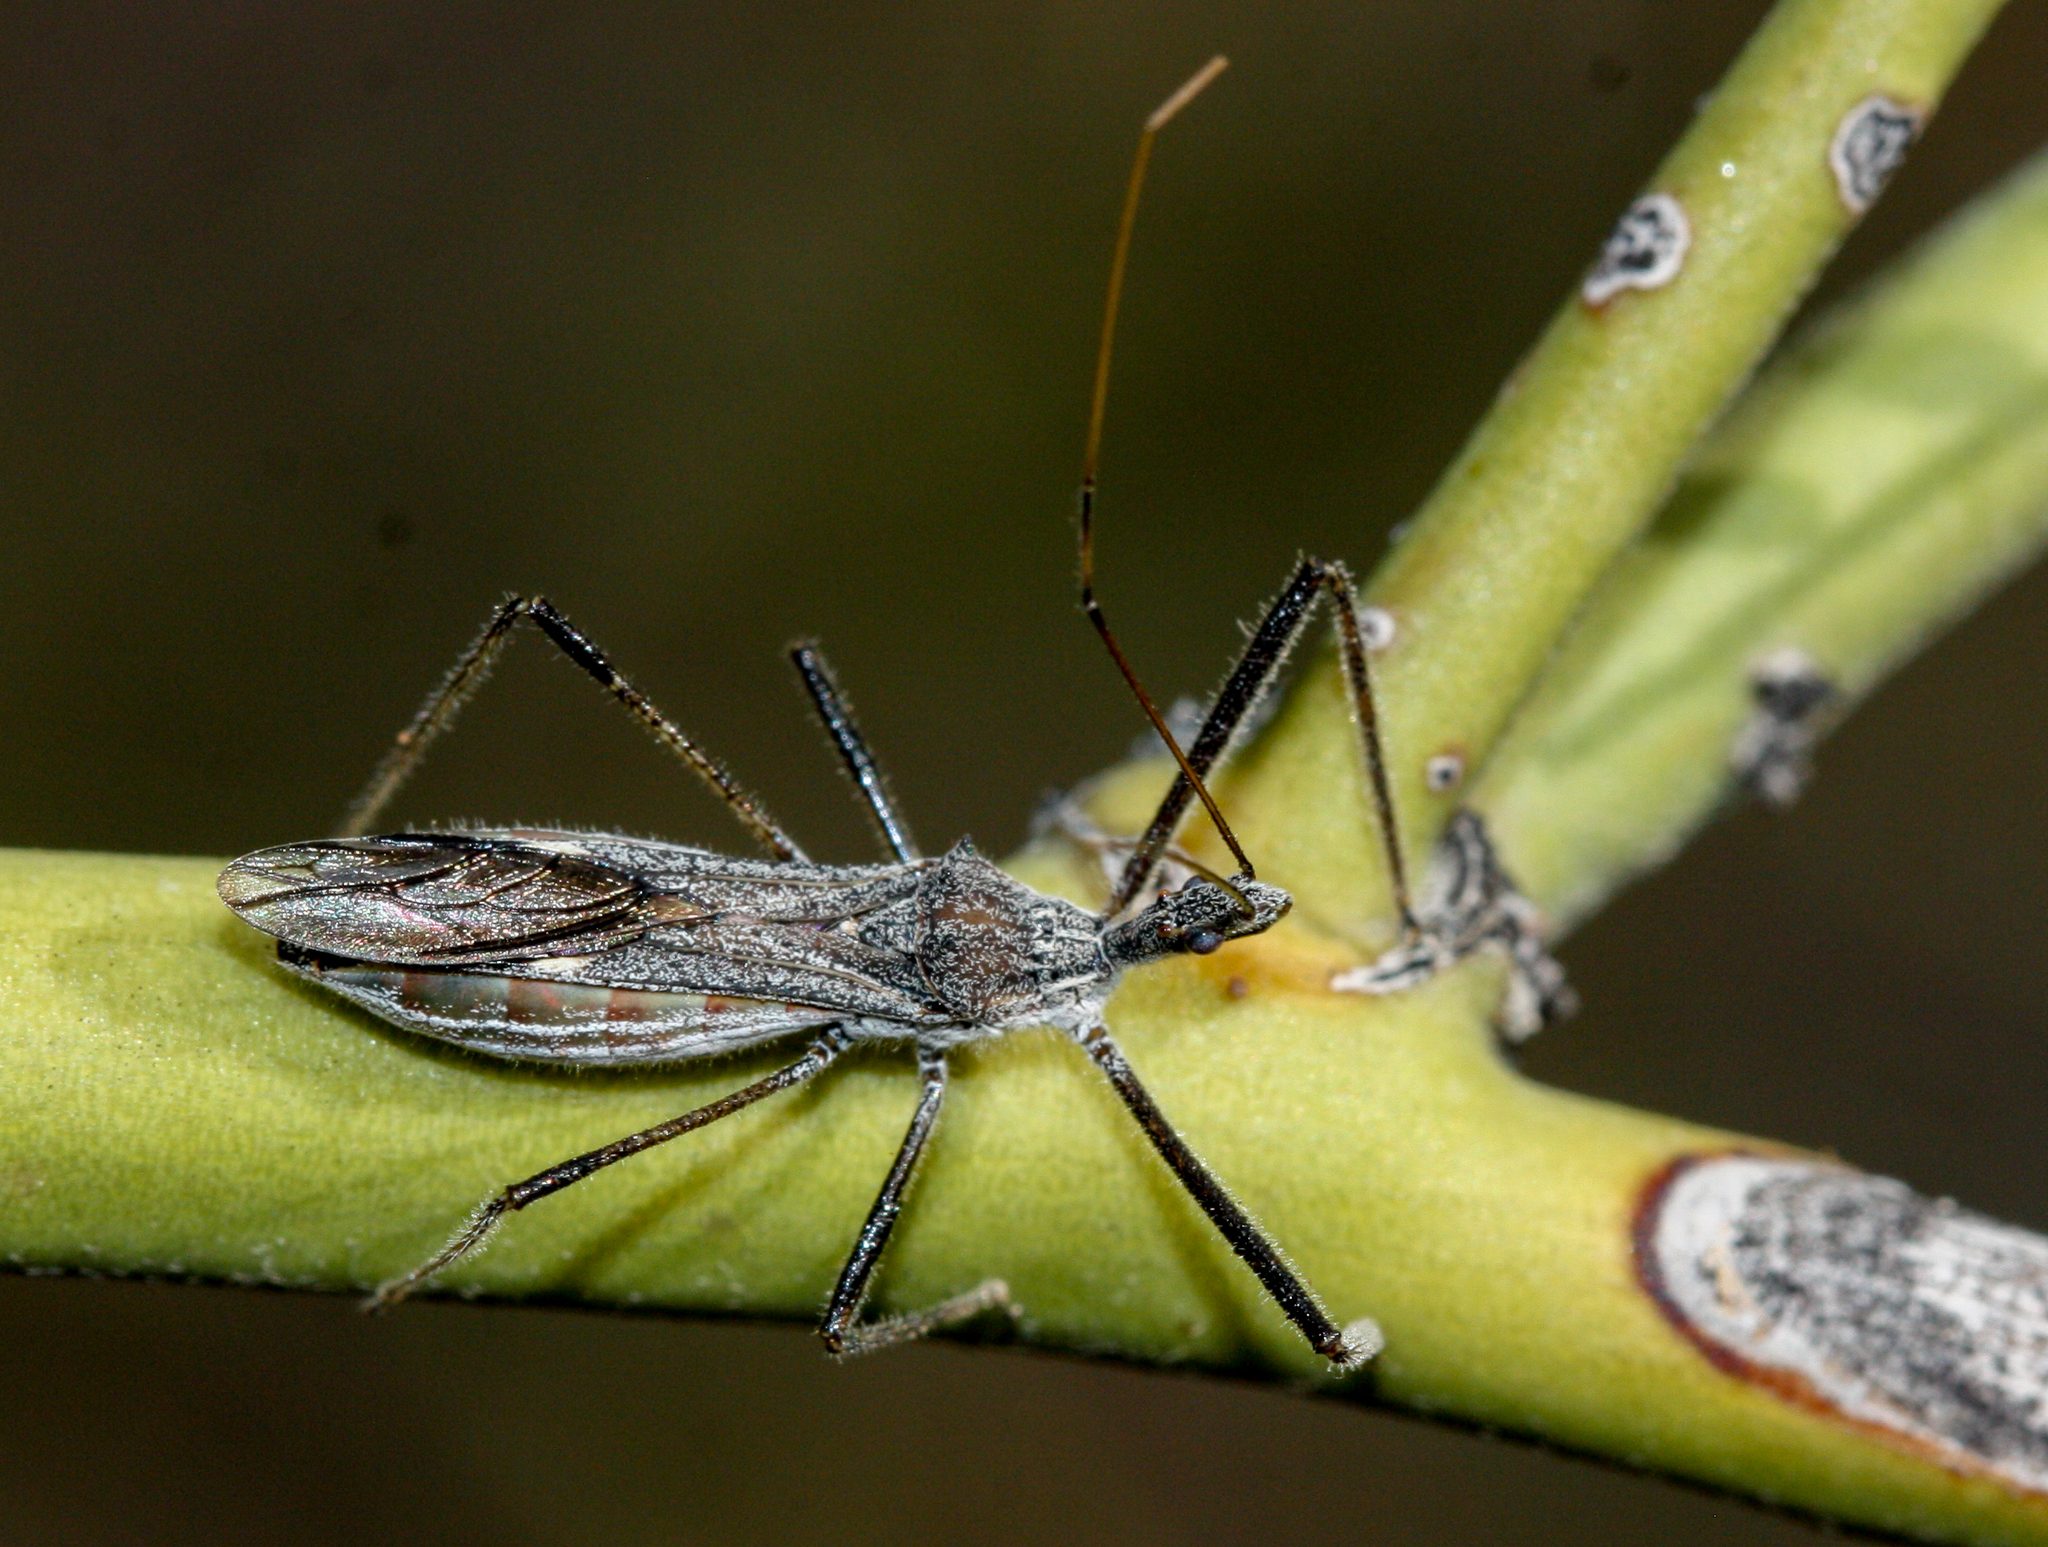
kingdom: Animalia
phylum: Arthropoda
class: Insecta
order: Hemiptera
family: Reduviidae
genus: Zelus
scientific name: Zelus tetracanthus
